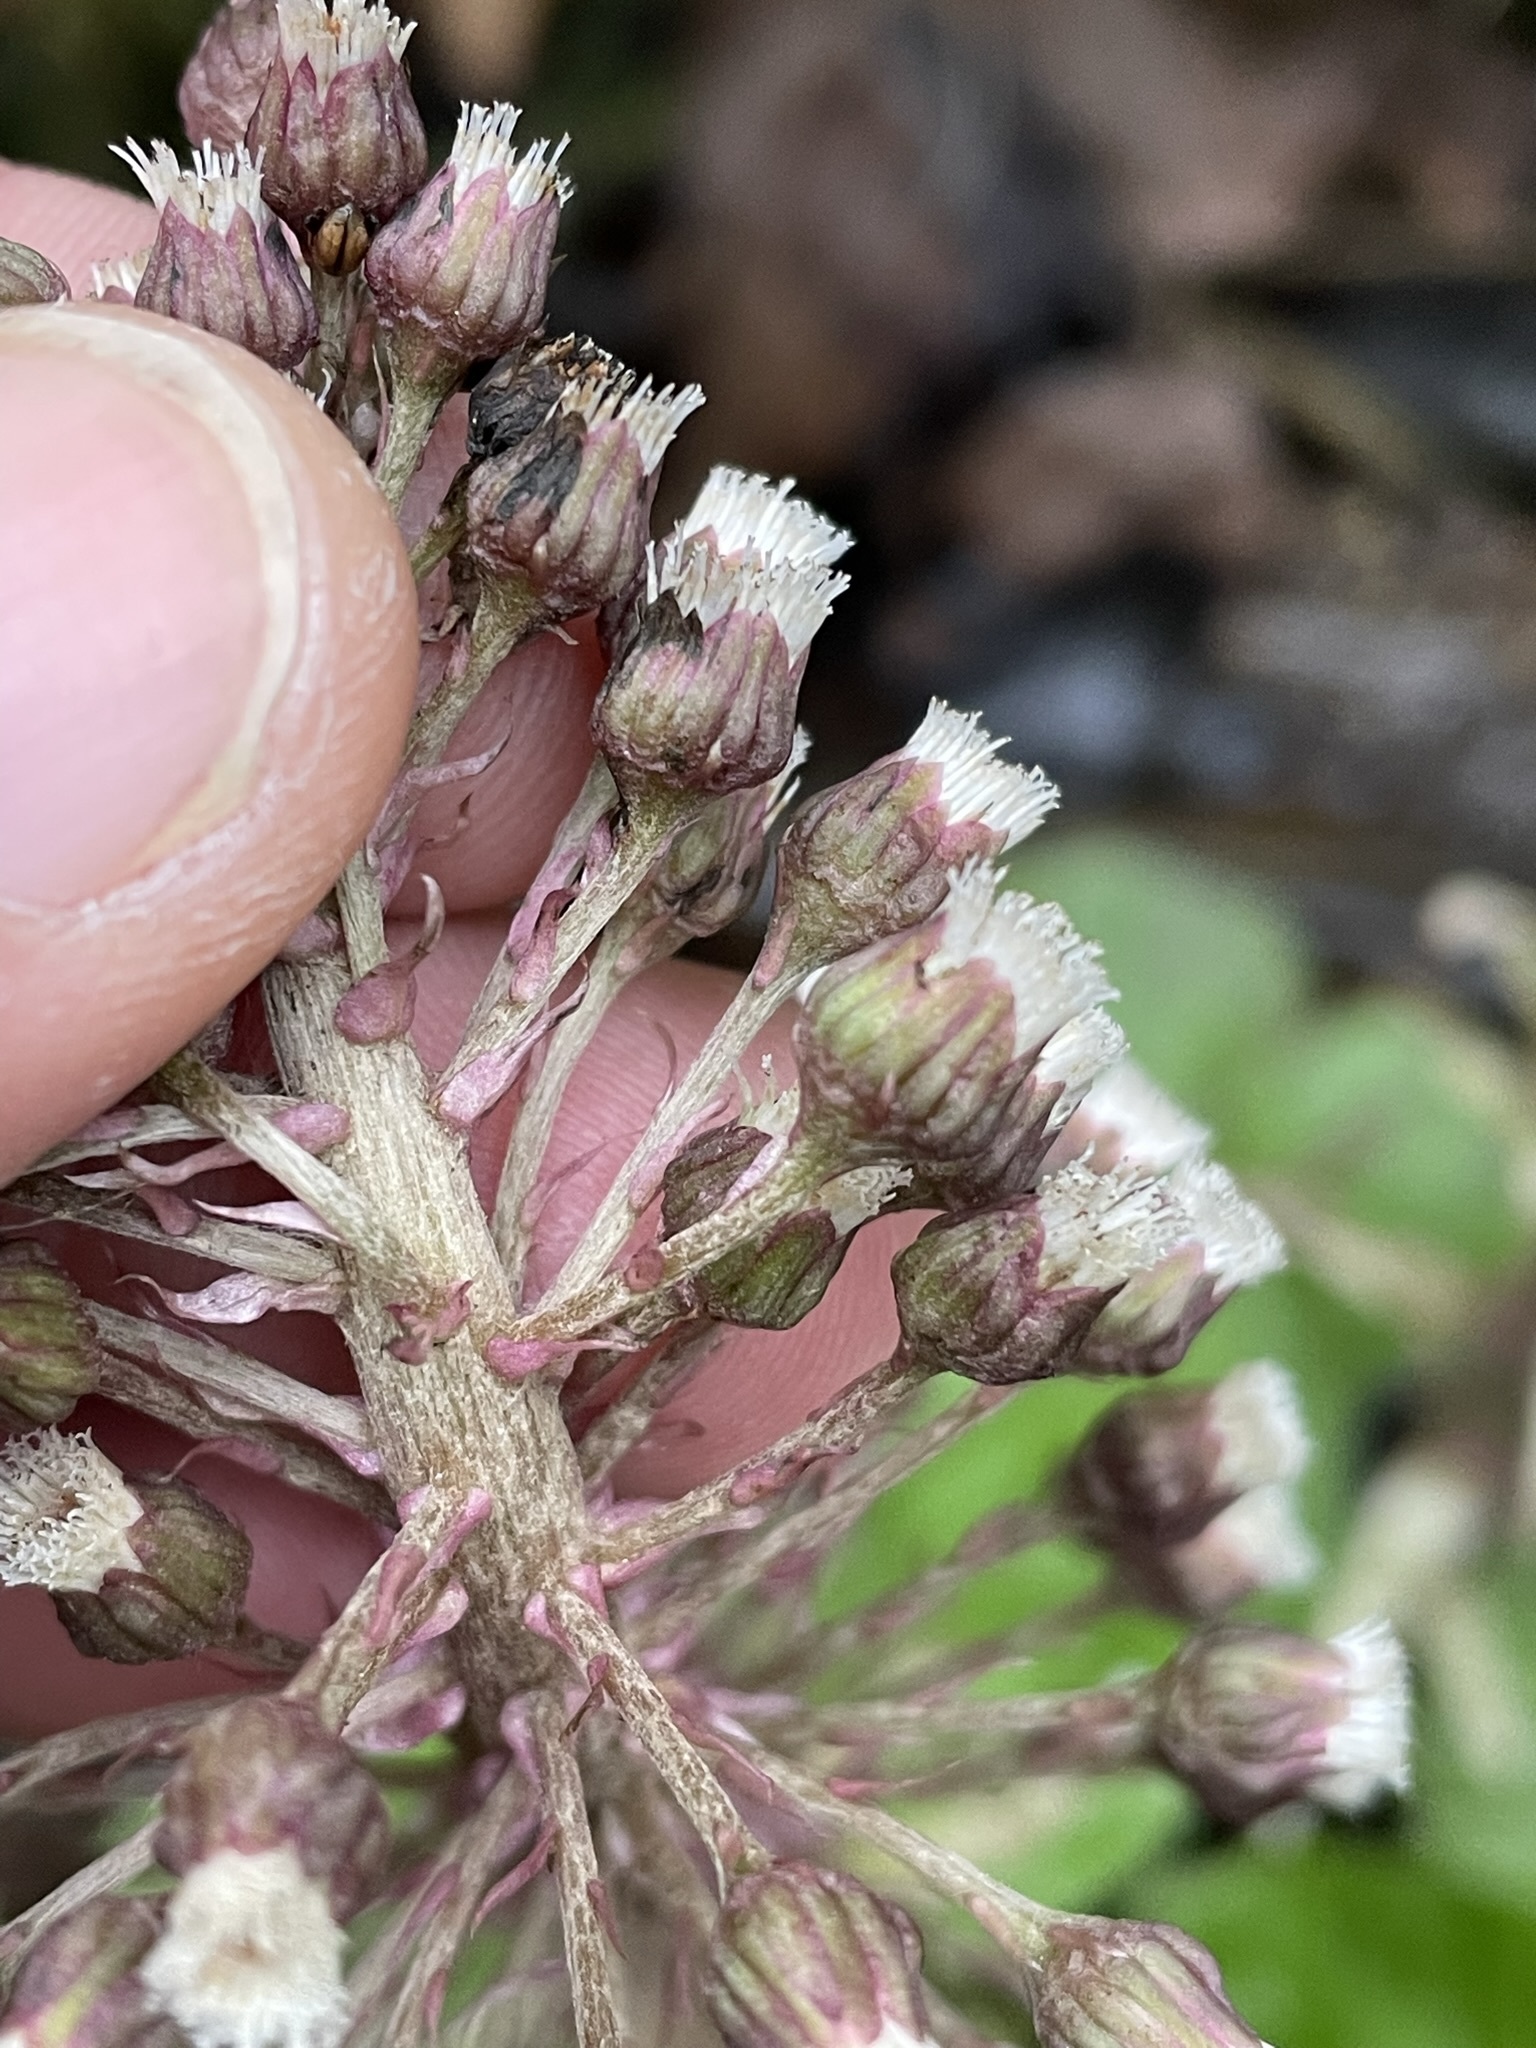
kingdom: Plantae
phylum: Tracheophyta
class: Magnoliopsida
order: Asterales
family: Asteraceae
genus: Petasites
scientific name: Petasites hybridus
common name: Butterbur
